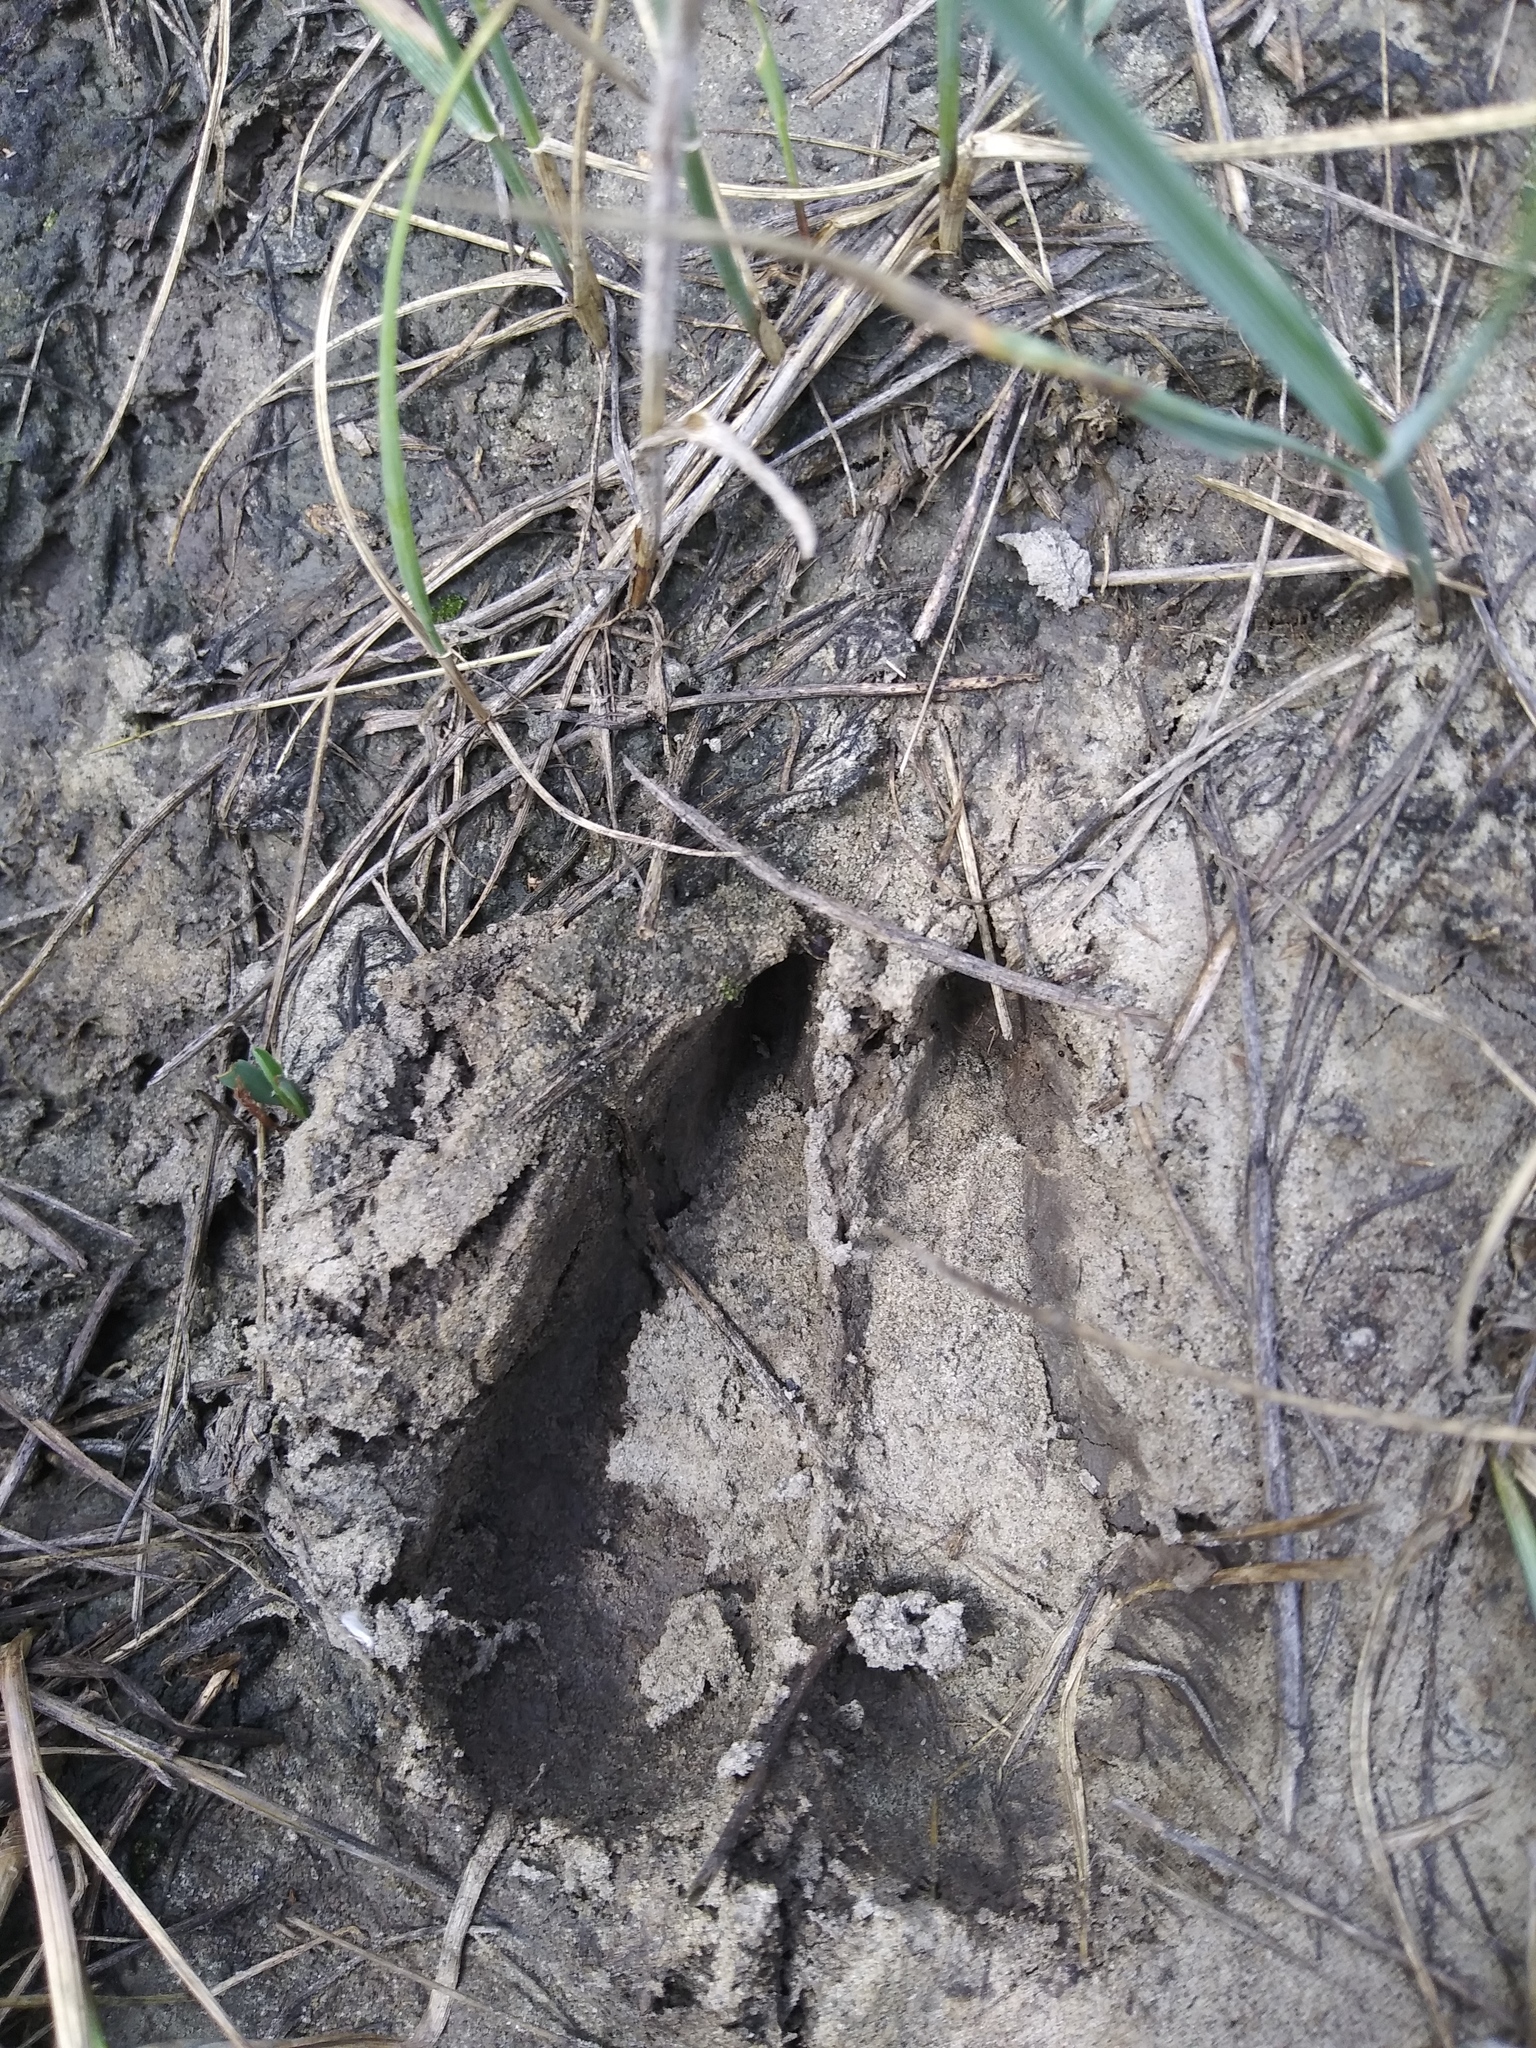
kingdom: Animalia
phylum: Chordata
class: Mammalia
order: Artiodactyla
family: Antilocapridae
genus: Antilocapra
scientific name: Antilocapra americana
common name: Pronghorn
